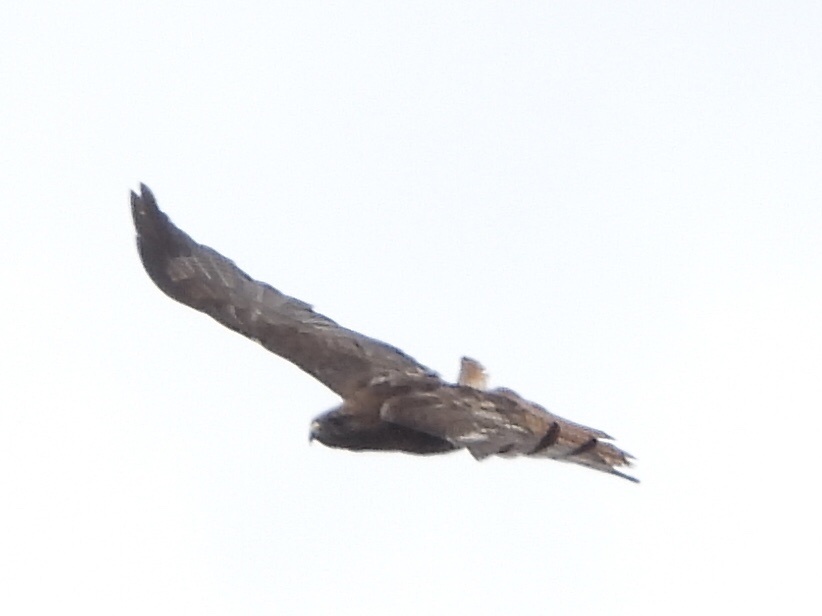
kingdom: Animalia
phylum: Chordata
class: Aves
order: Accipitriformes
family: Accipitridae
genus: Buteo
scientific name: Buteo jamaicensis
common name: Red-tailed hawk
